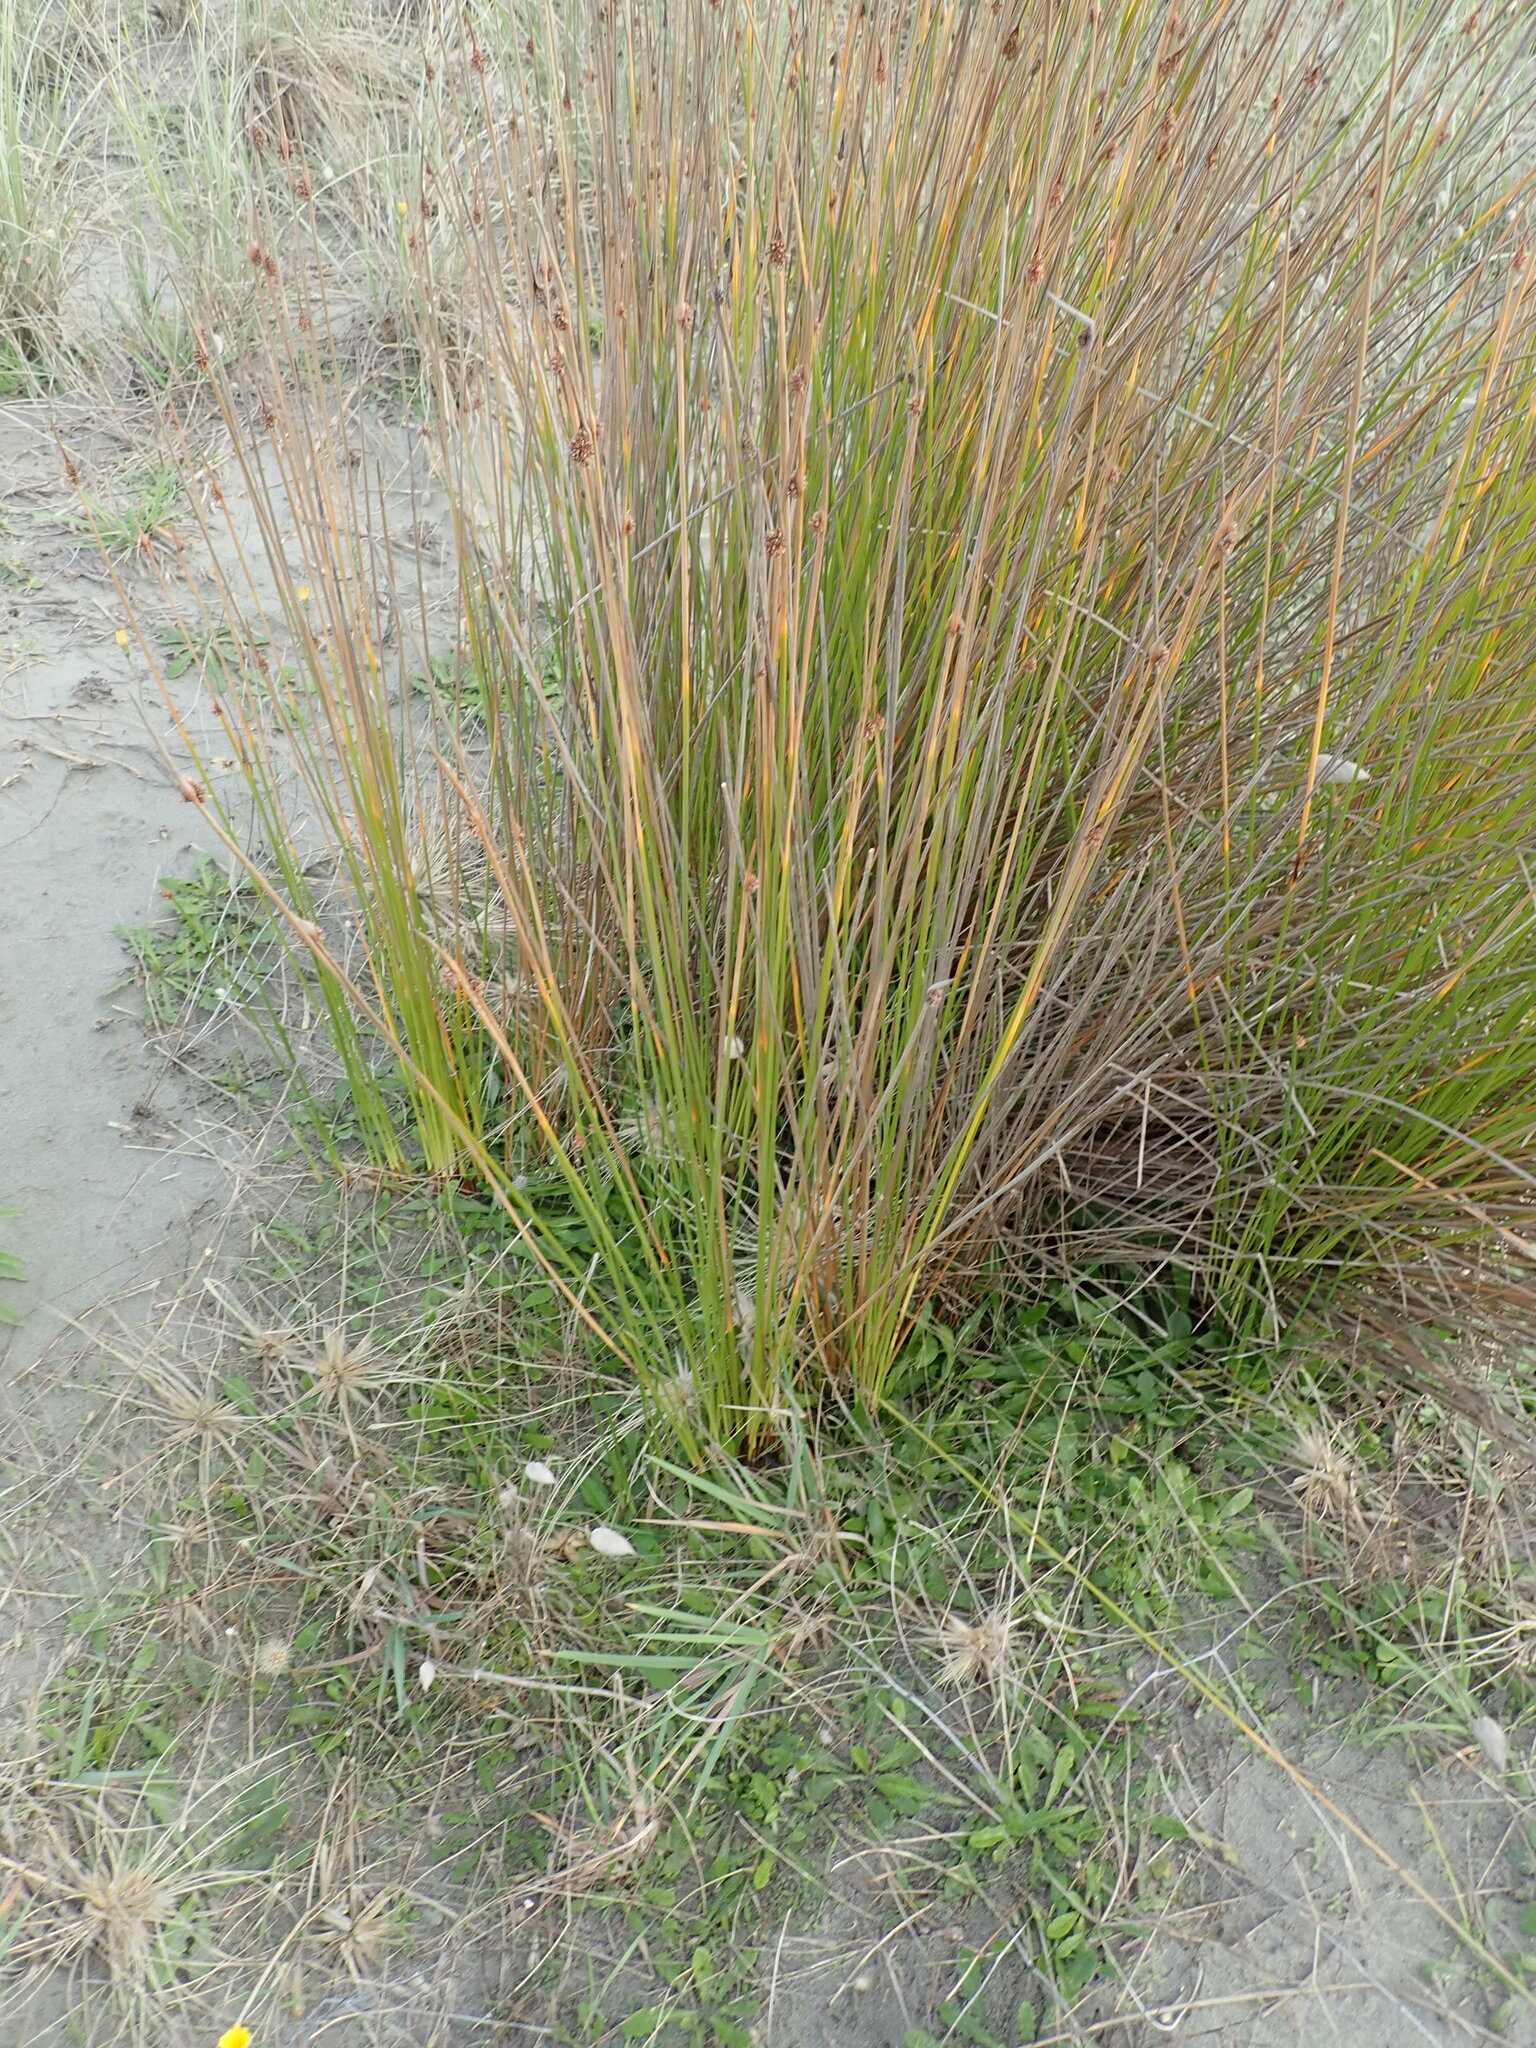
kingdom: Plantae
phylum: Tracheophyta
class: Liliopsida
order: Poales
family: Cyperaceae
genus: Ficinia
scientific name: Ficinia nodosa
